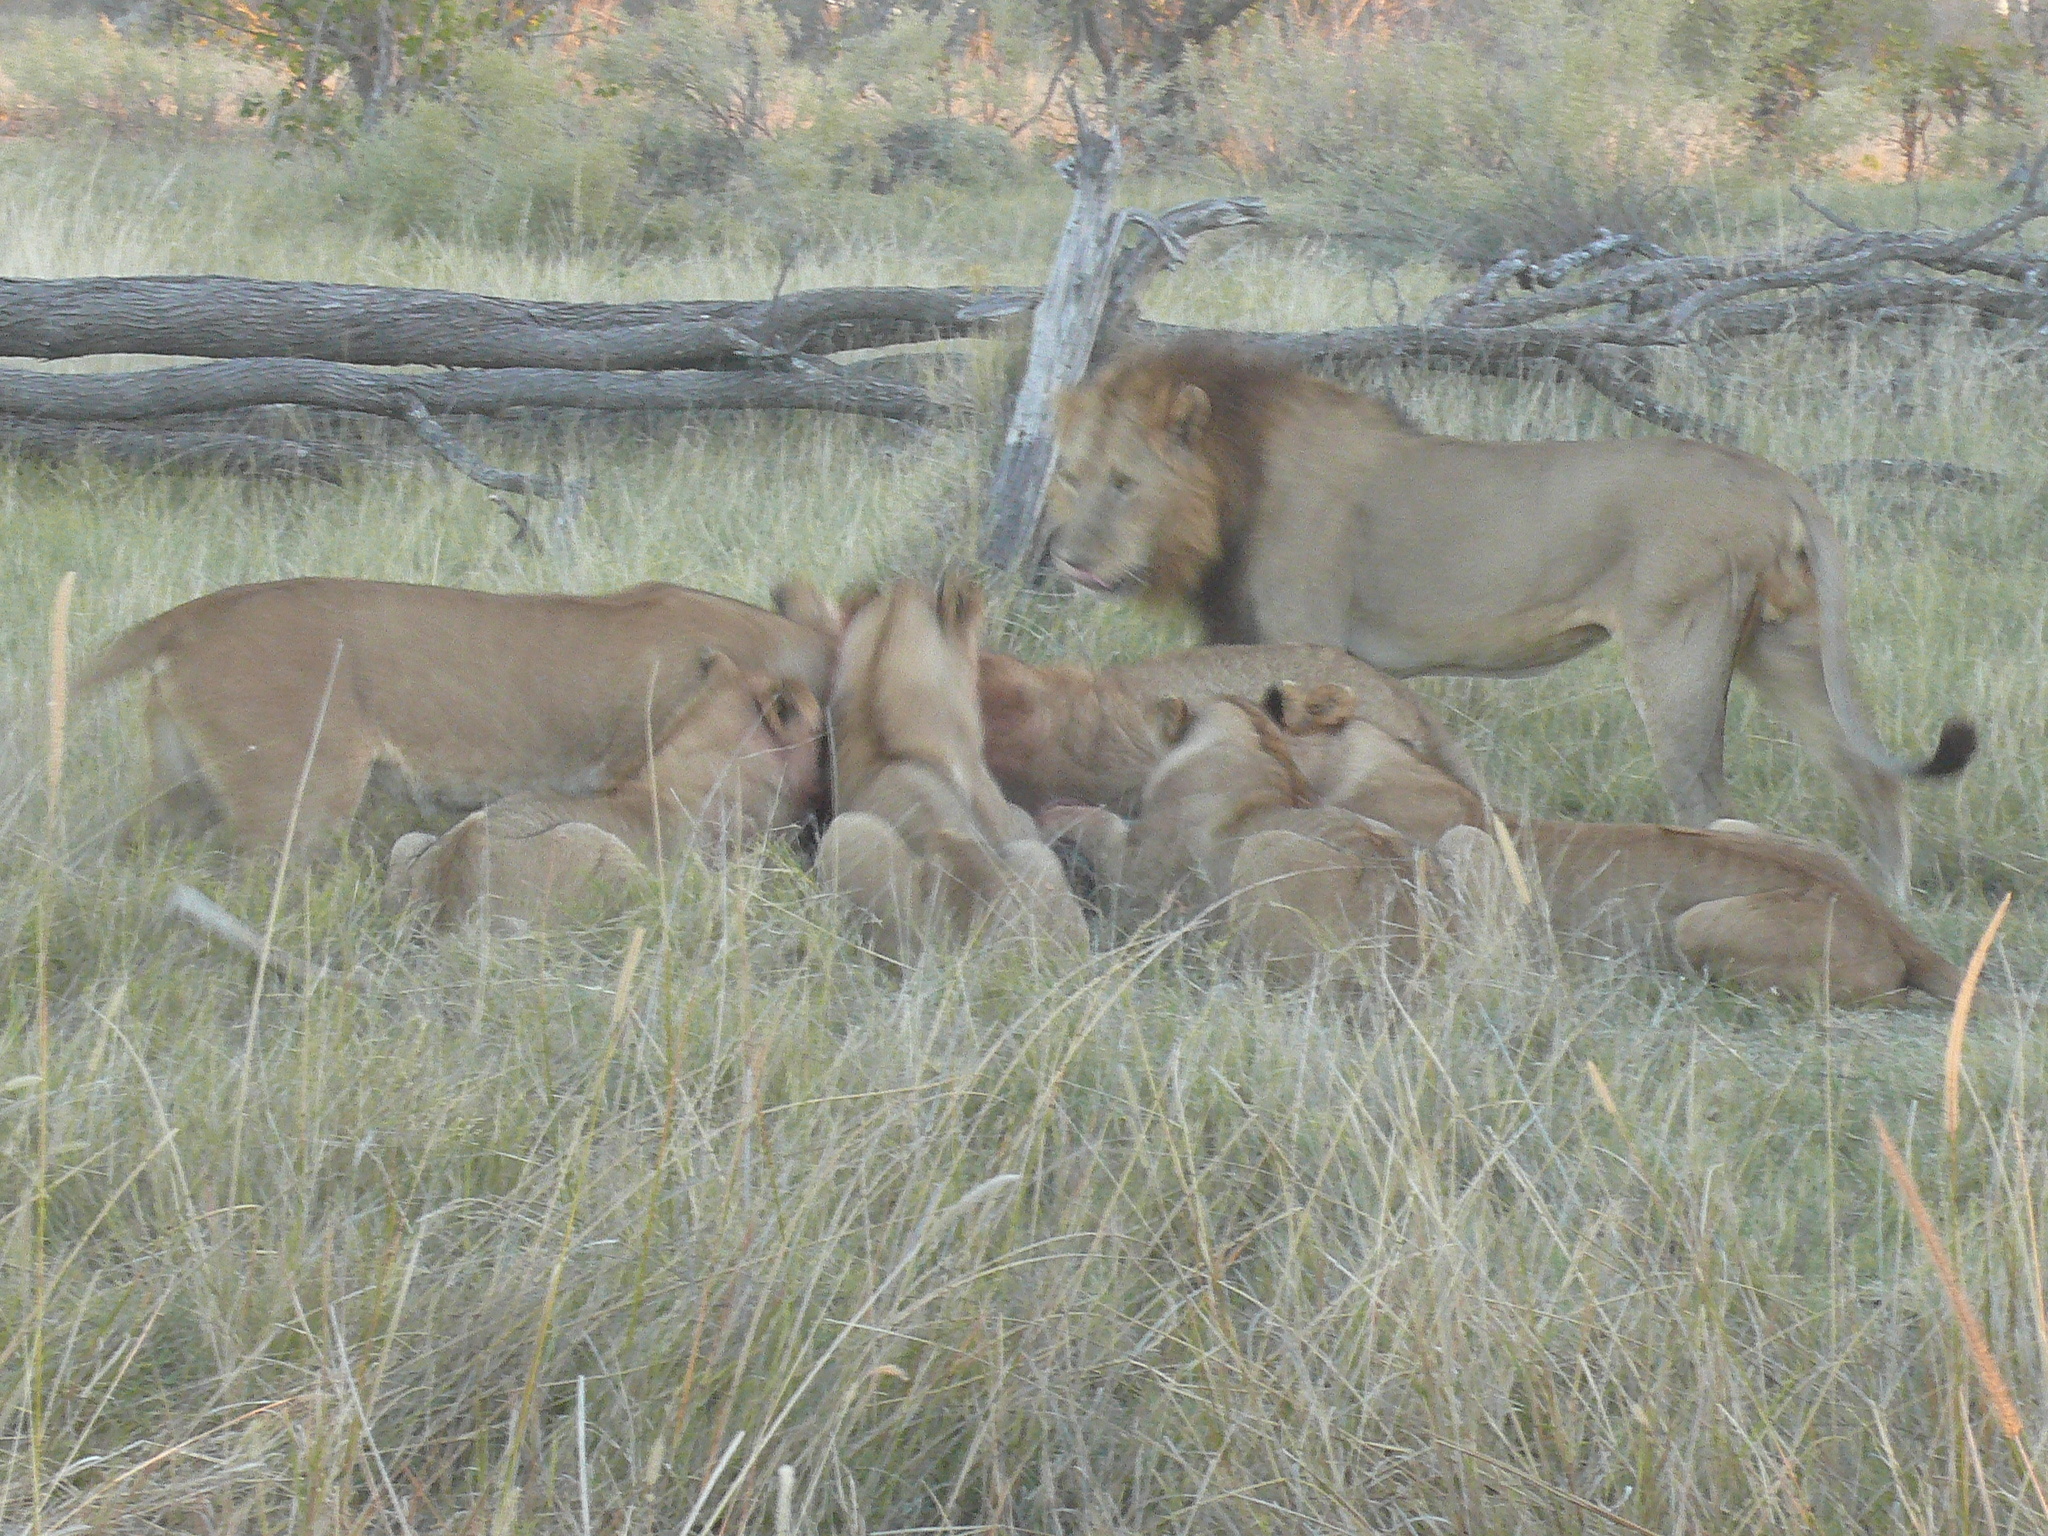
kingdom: Animalia
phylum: Chordata
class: Mammalia
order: Carnivora
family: Felidae
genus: Panthera
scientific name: Panthera leo
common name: Lion
